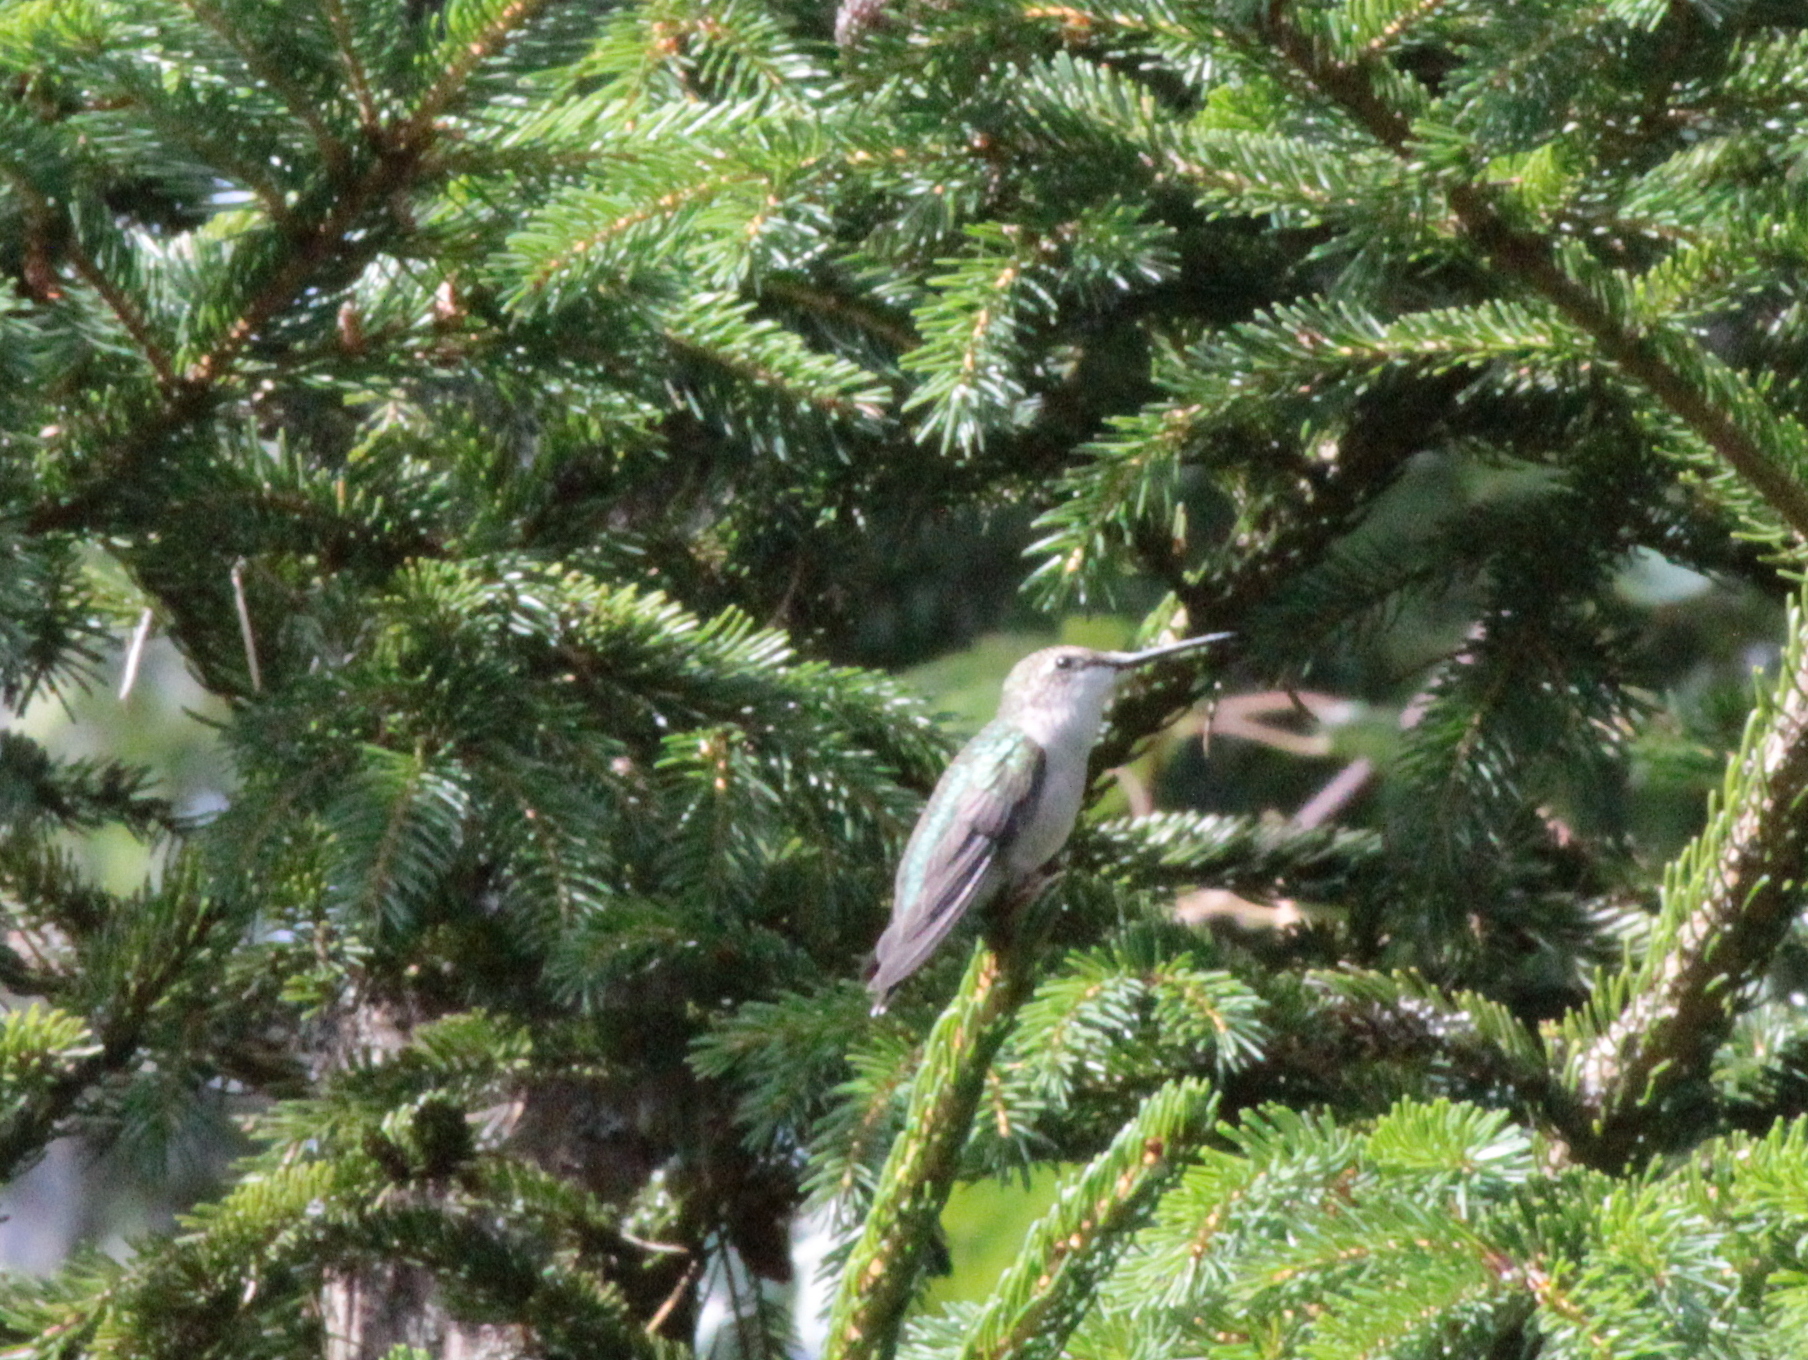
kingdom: Animalia
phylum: Chordata
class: Aves
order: Apodiformes
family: Trochilidae
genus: Archilochus
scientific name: Archilochus colubris
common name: Ruby-throated hummingbird
